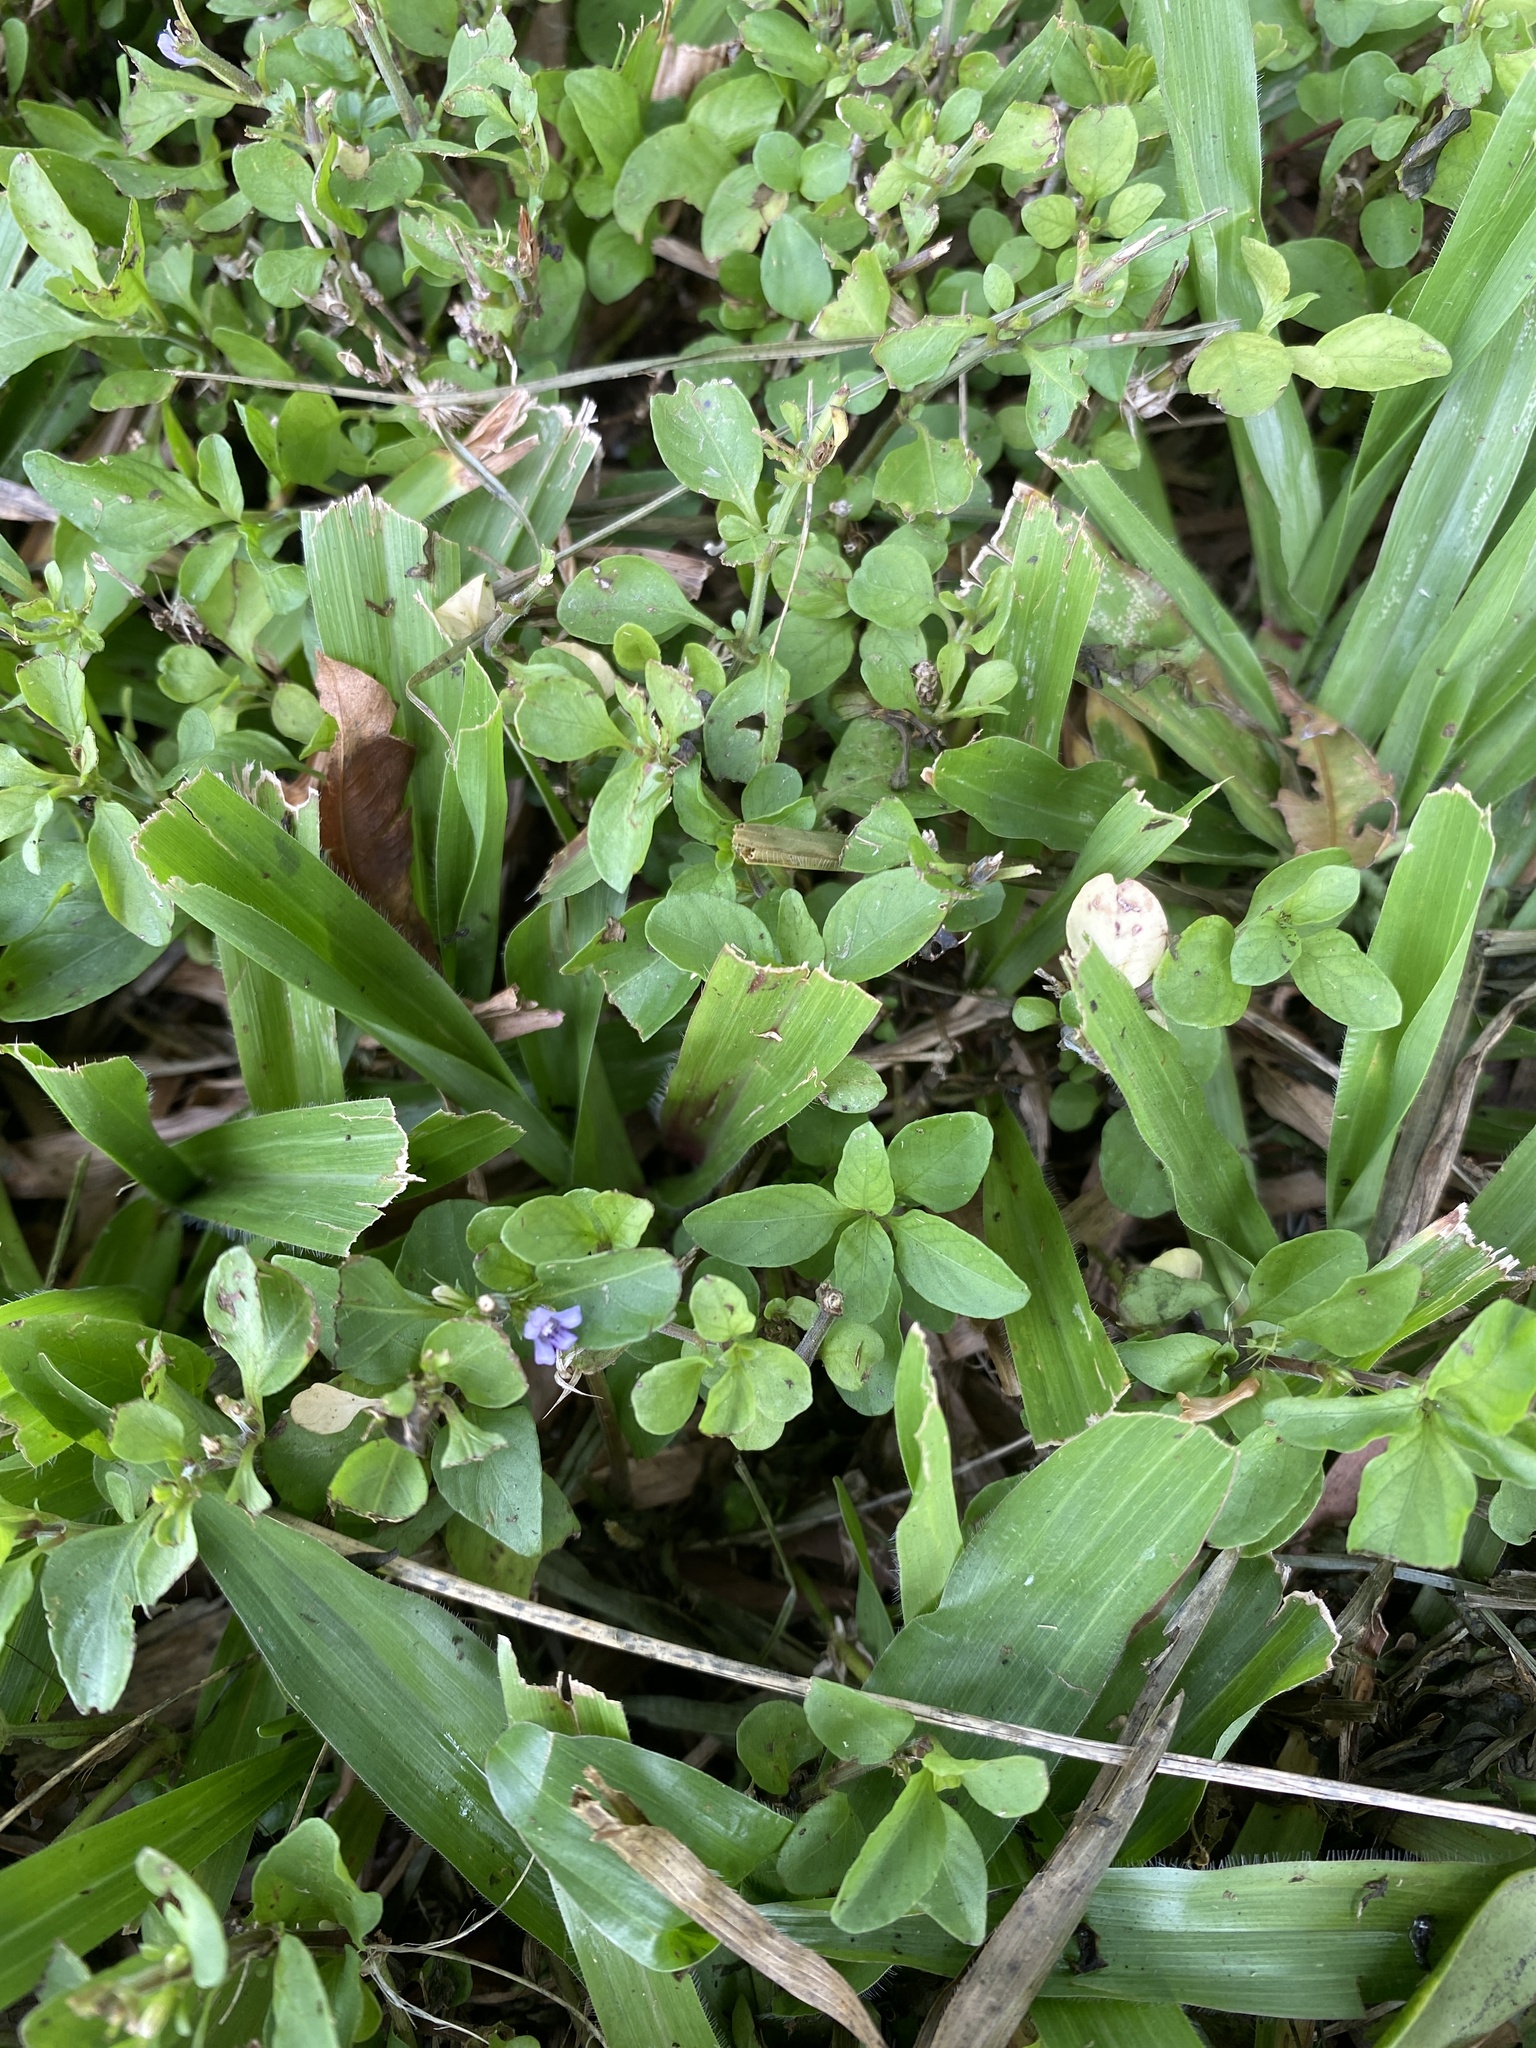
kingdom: Plantae
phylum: Tracheophyta
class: Magnoliopsida
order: Lamiales
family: Acanthaceae
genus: Hygrophila
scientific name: Hygrophila erecta
